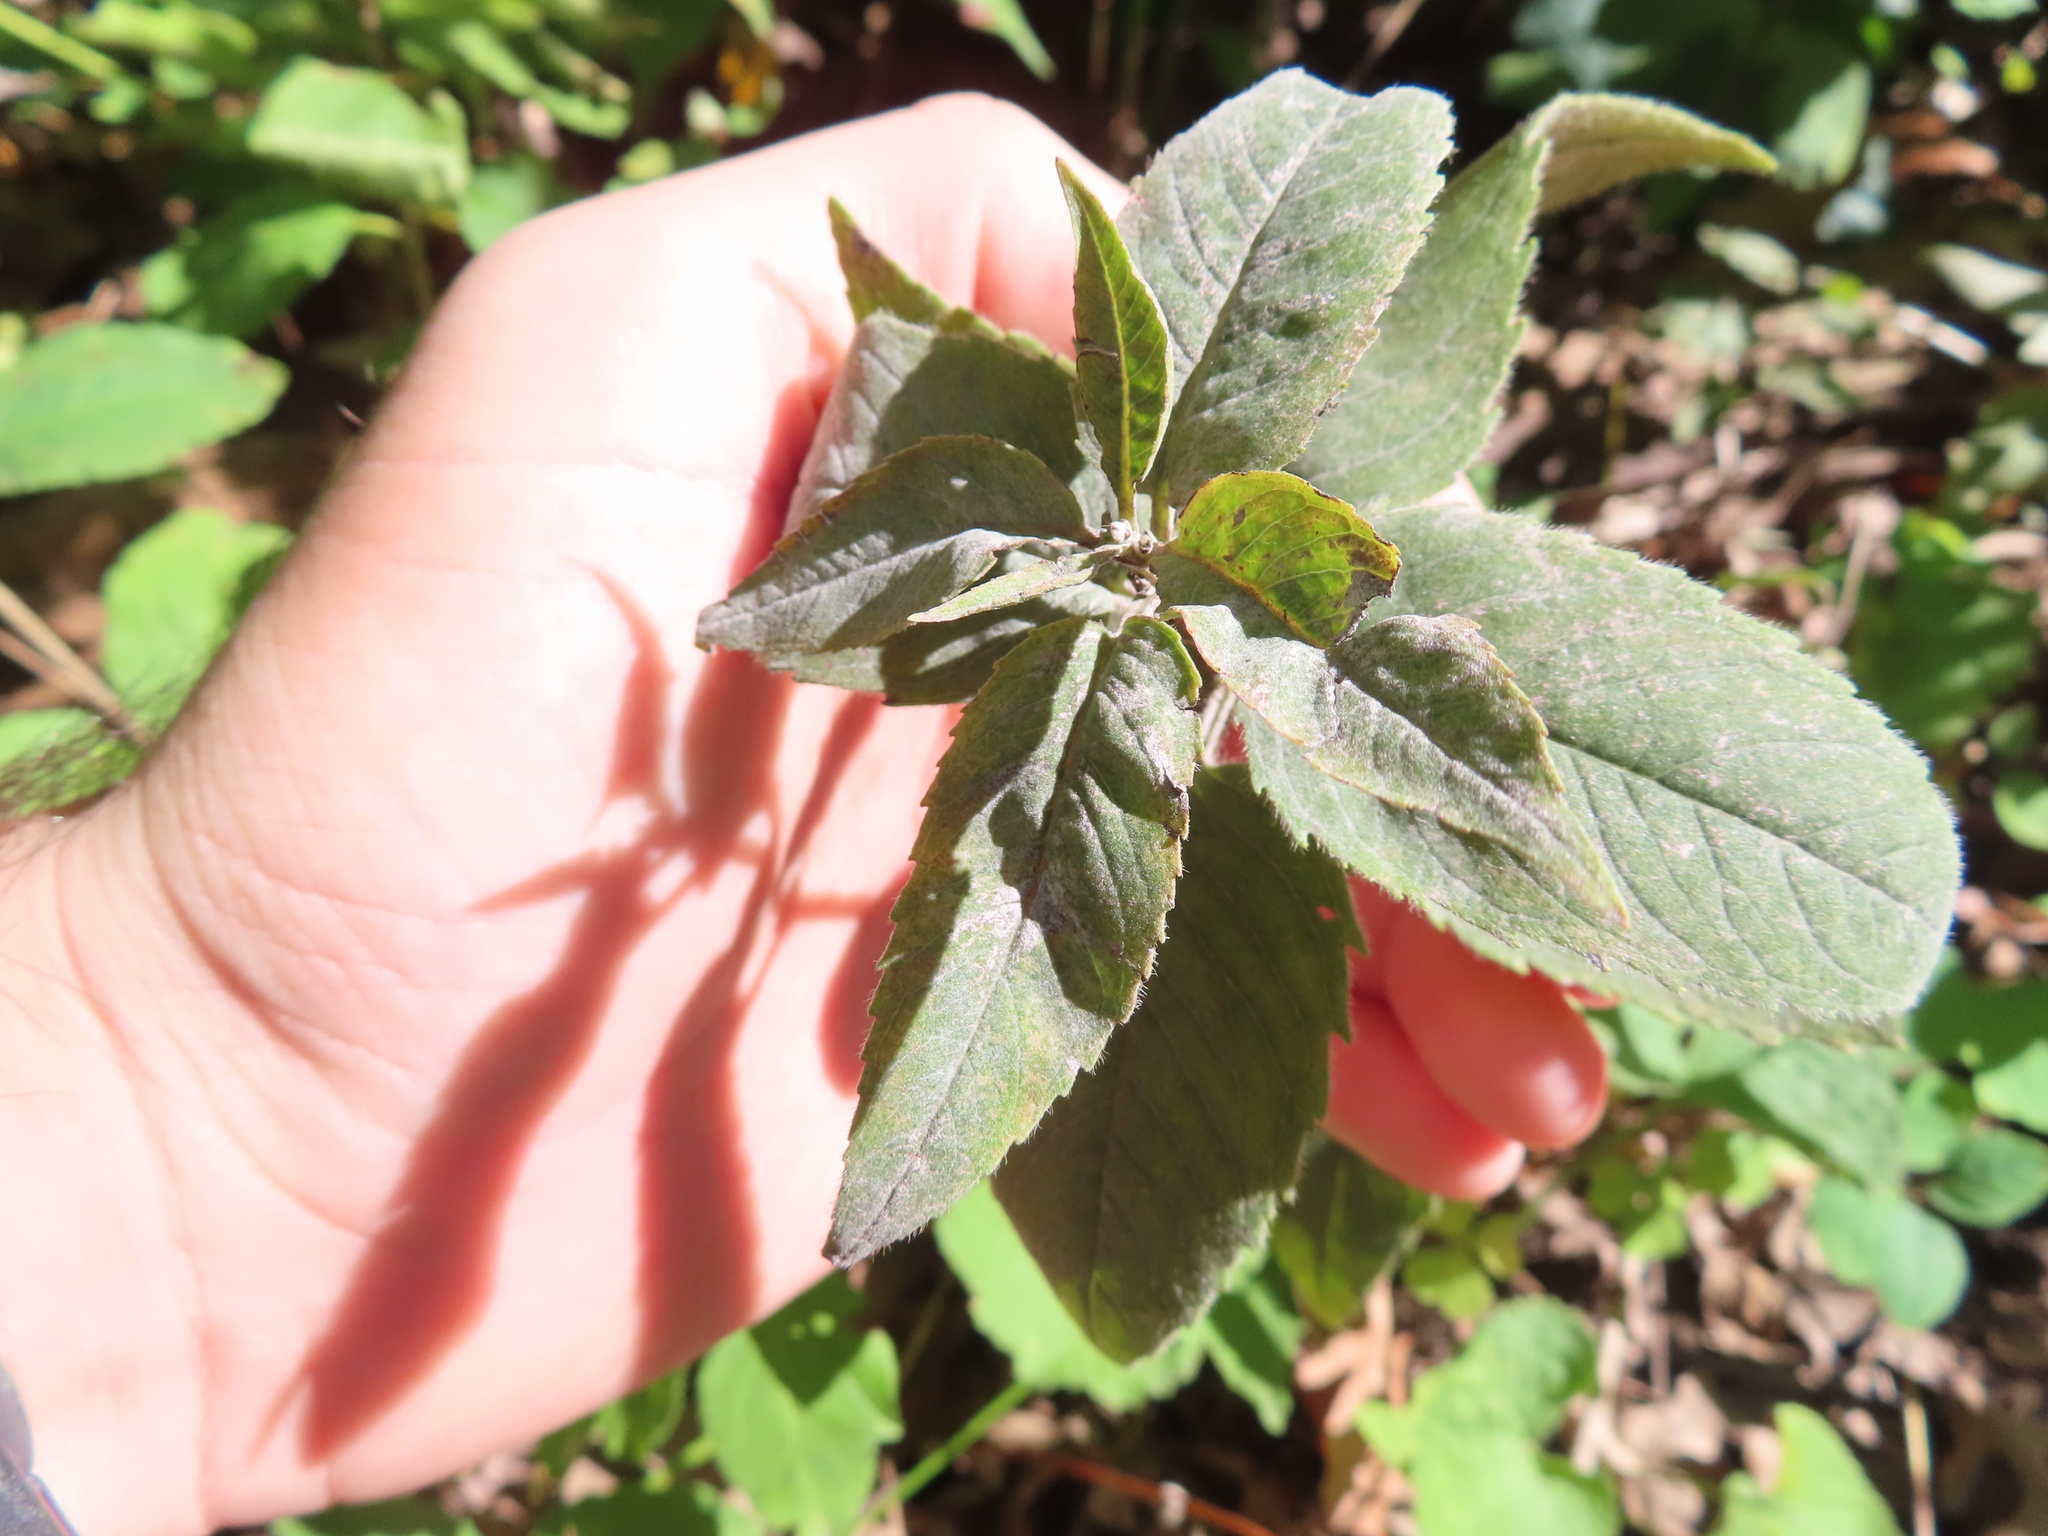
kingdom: Fungi
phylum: Ascomycota
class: Leotiomycetes
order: Helotiales
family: Erysiphaceae
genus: Golovinomyces
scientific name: Golovinomyces monardae
